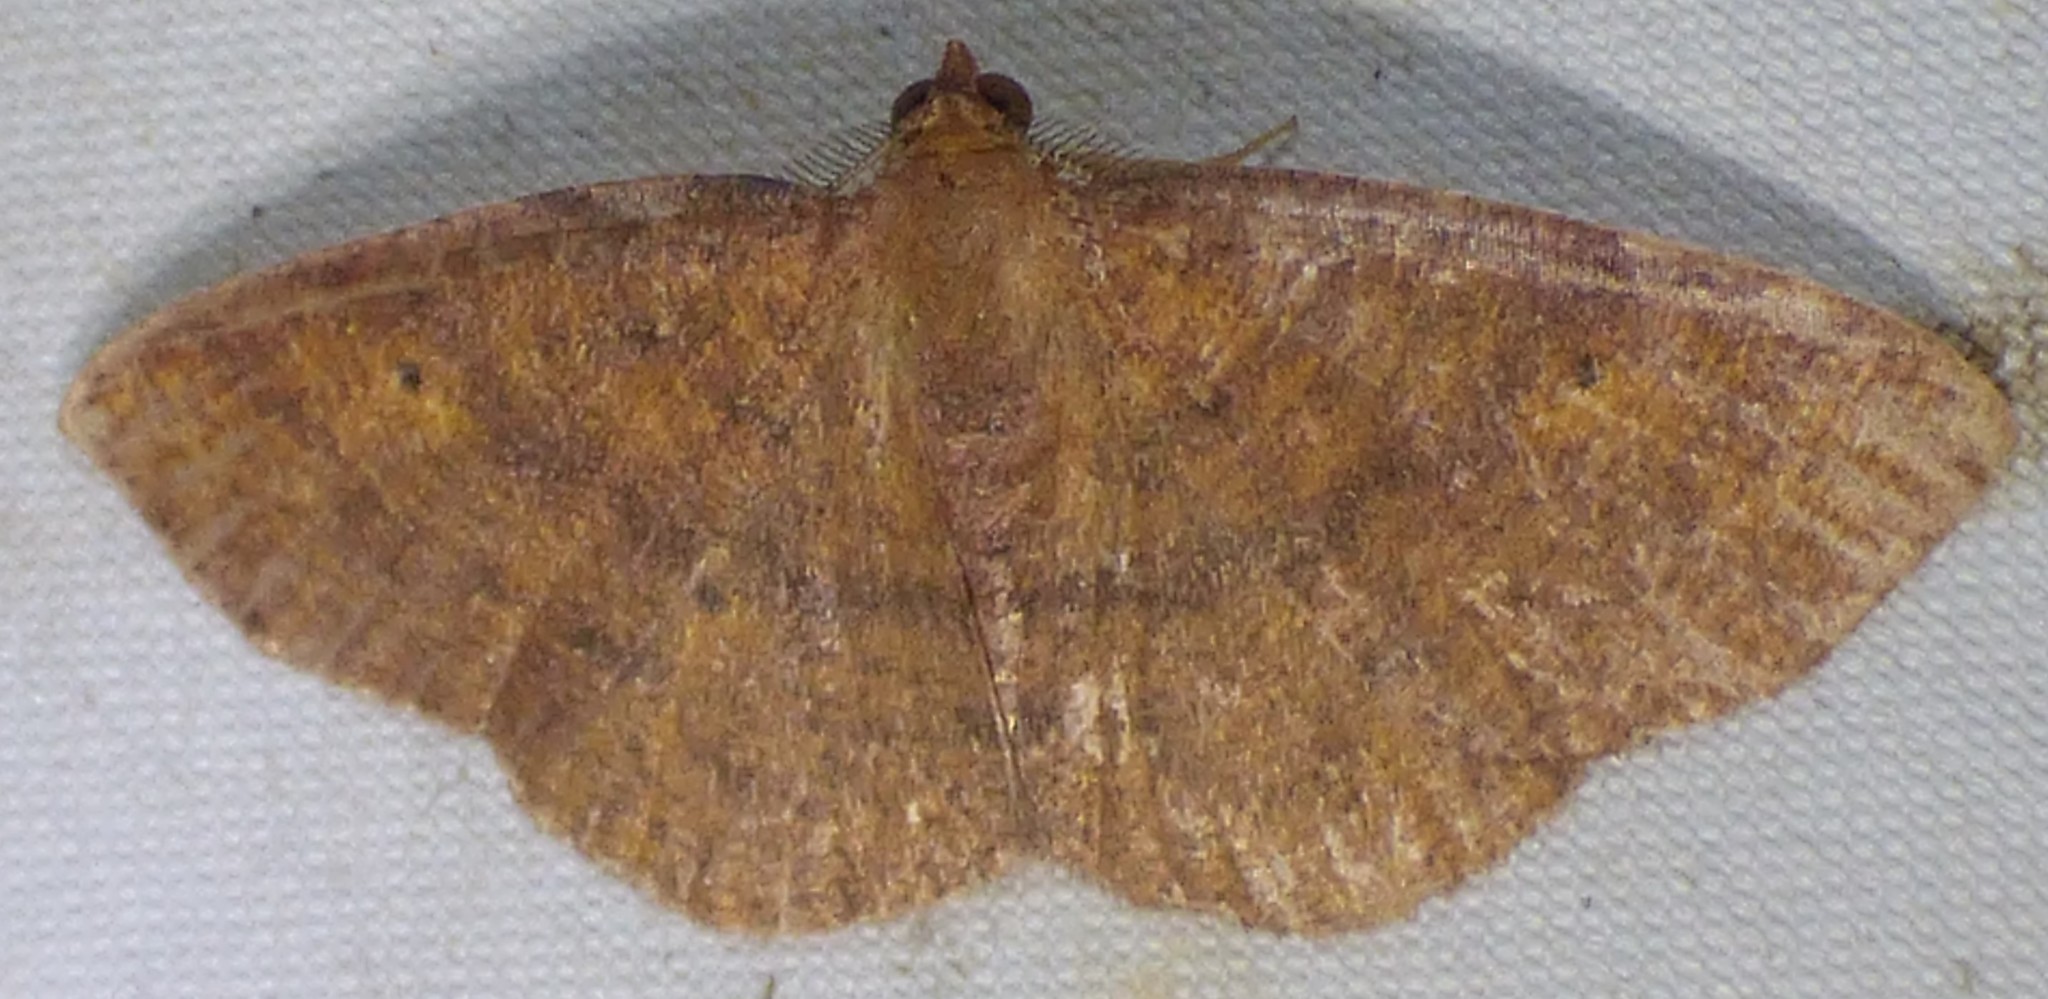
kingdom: Animalia
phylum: Arthropoda
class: Insecta
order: Lepidoptera
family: Geometridae
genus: Ilexia
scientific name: Ilexia intractata
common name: Black-dotted ruddy moth
